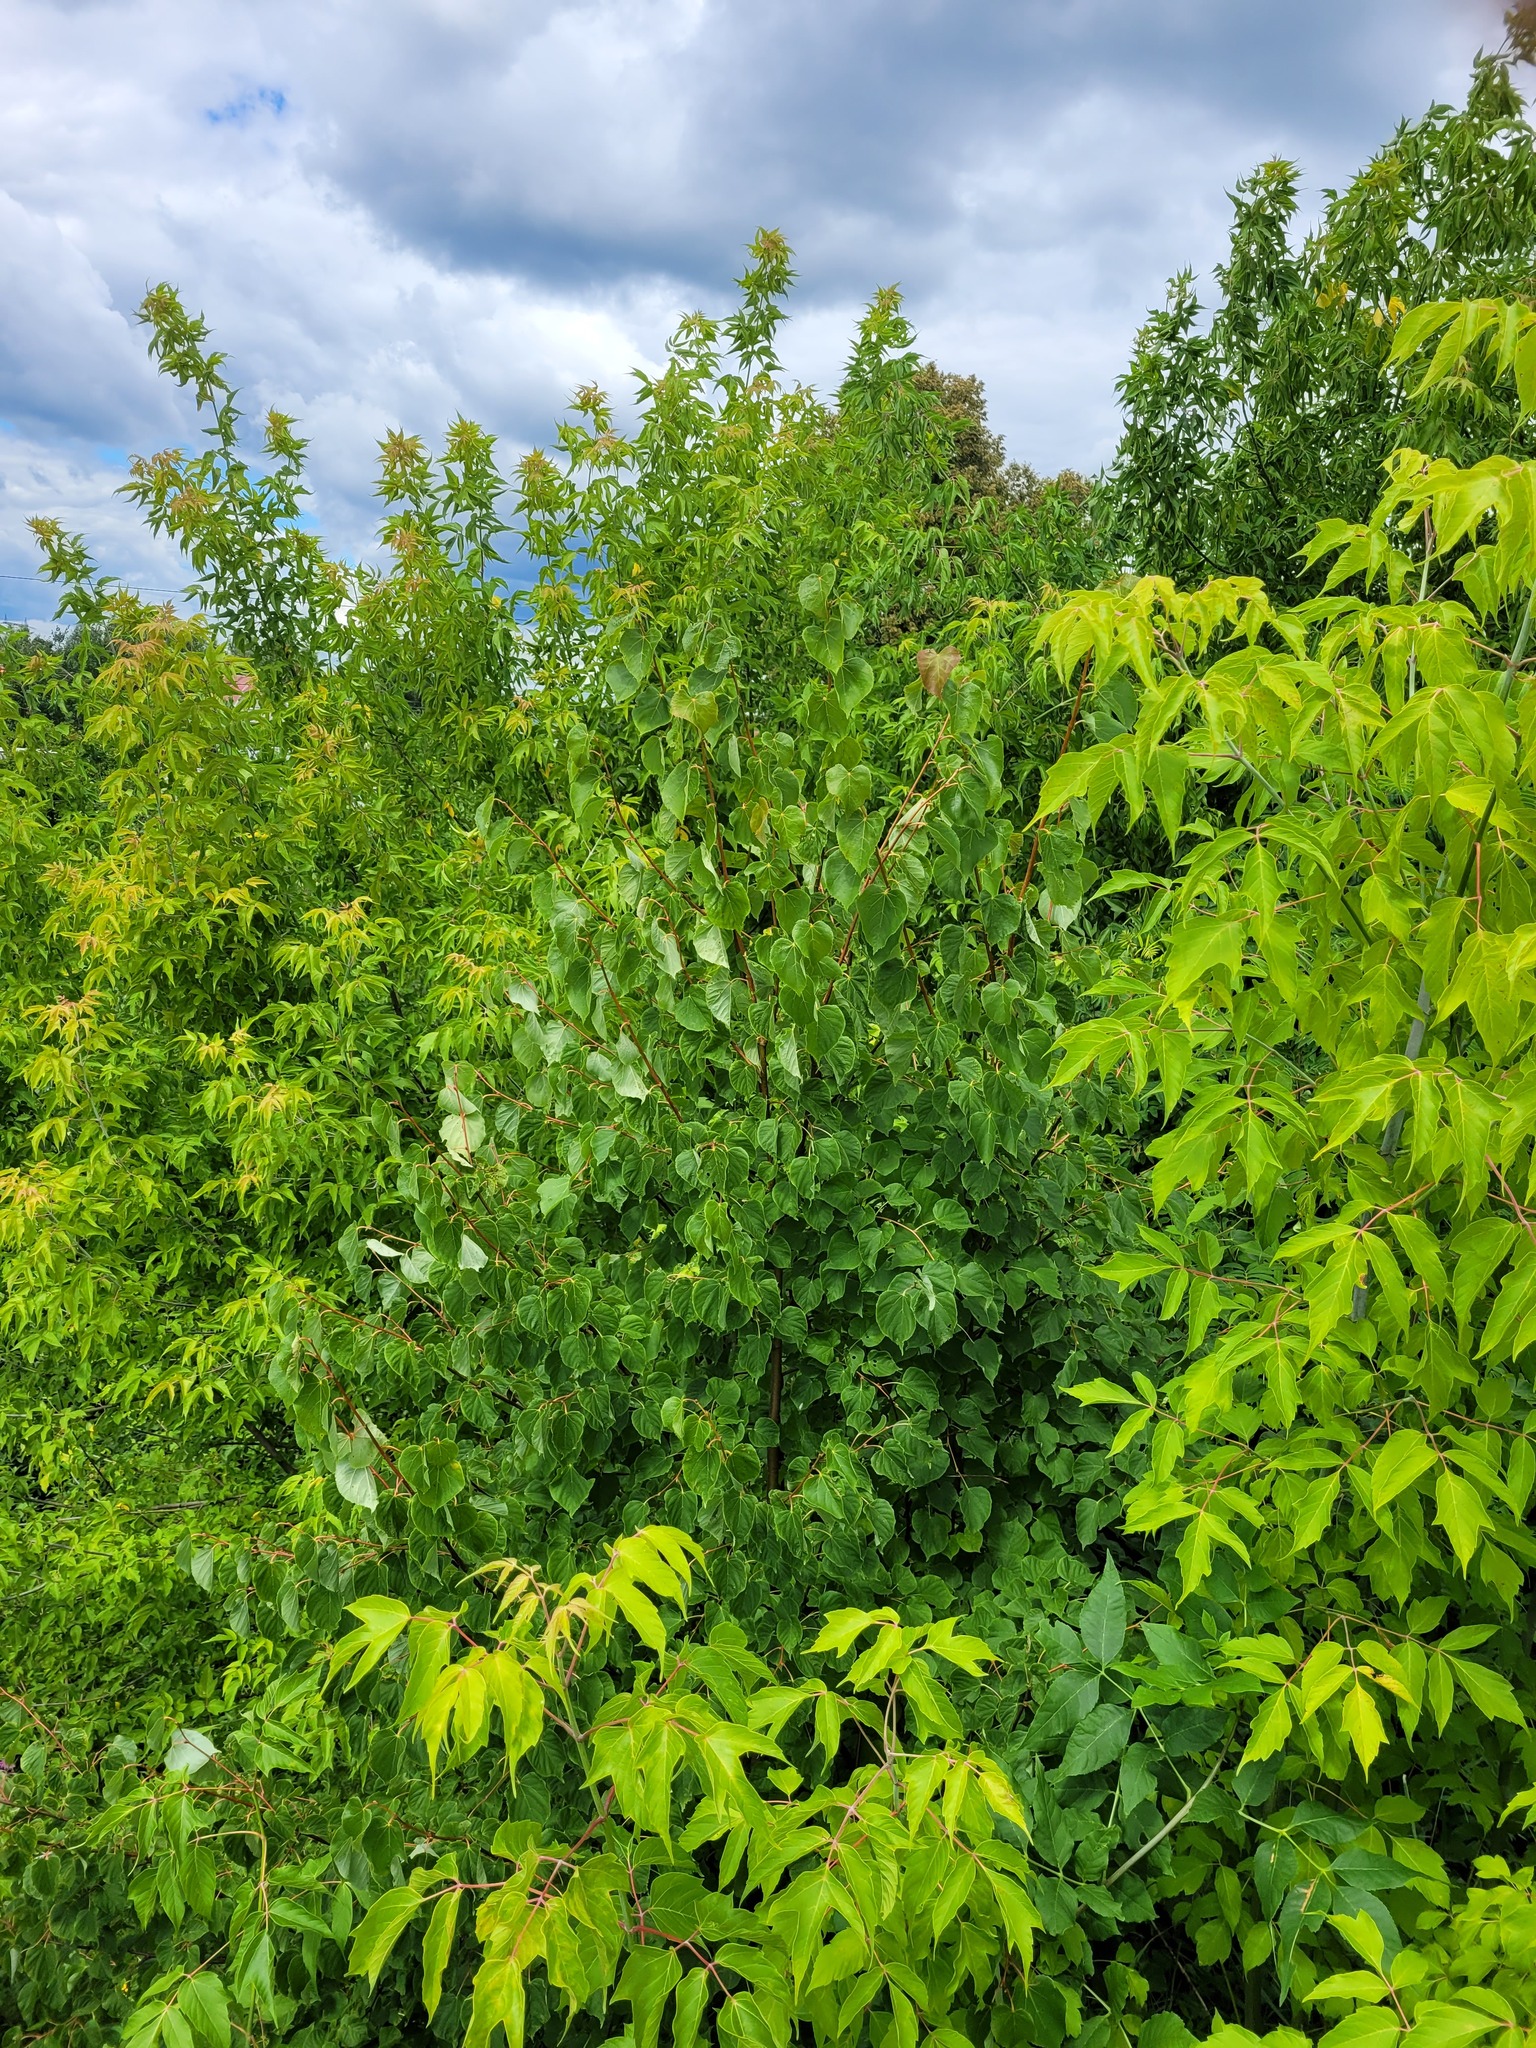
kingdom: Plantae
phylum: Tracheophyta
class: Magnoliopsida
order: Malvales
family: Malvaceae
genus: Tilia
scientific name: Tilia cordata
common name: Small-leaved lime
